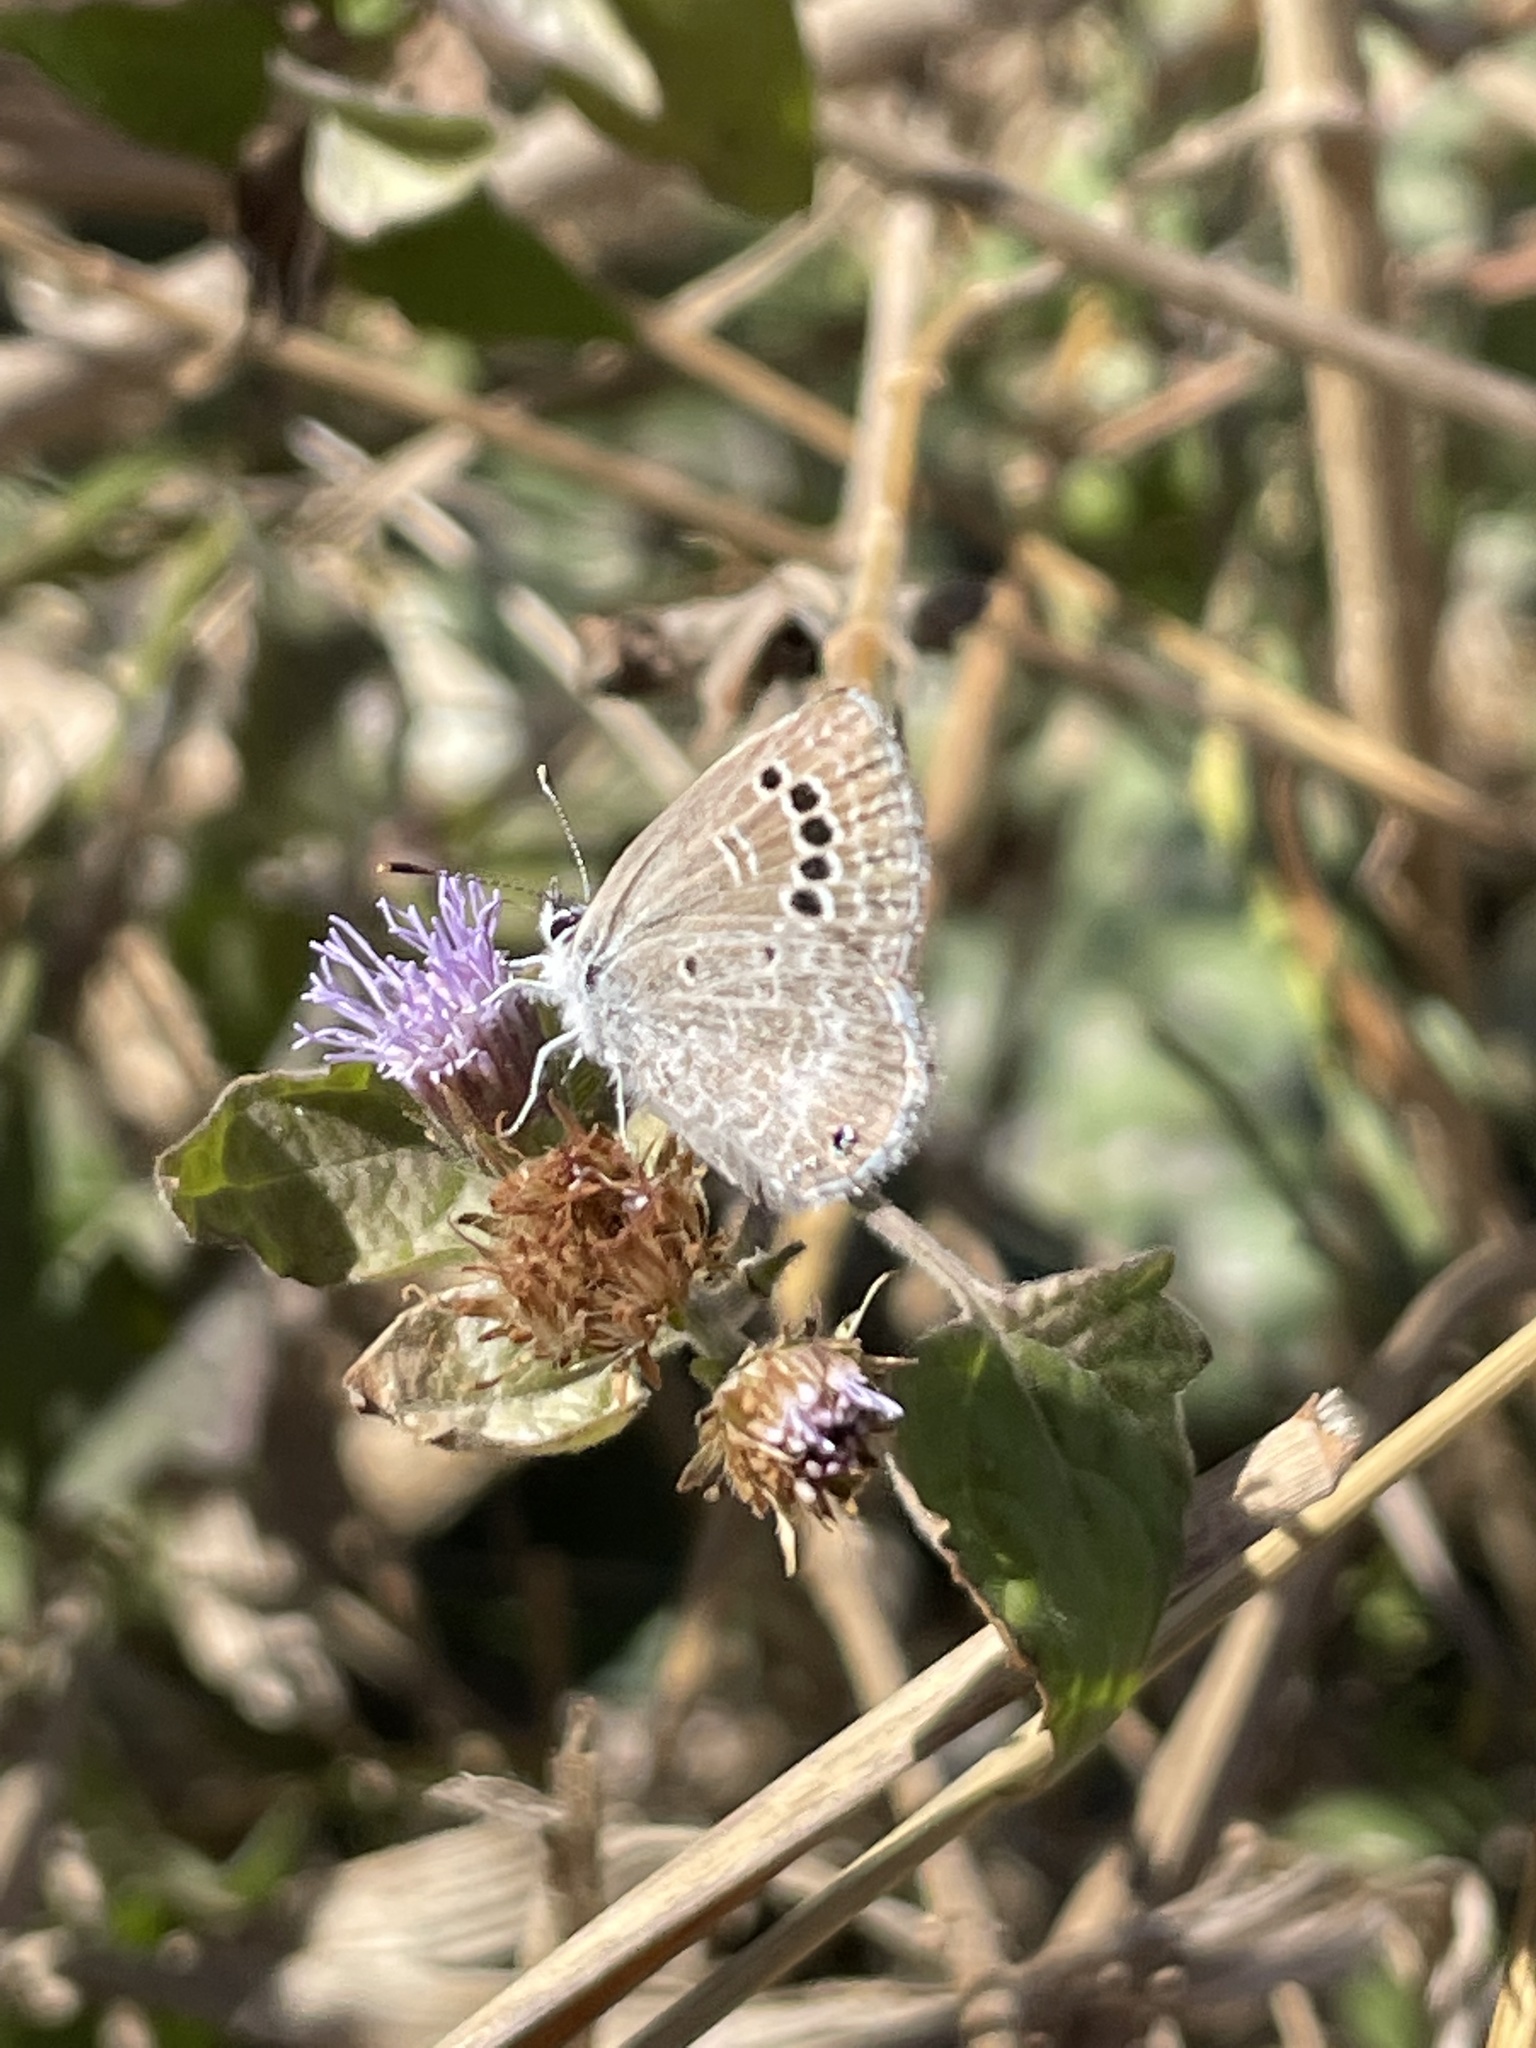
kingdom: Animalia
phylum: Arthropoda
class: Insecta
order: Lepidoptera
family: Lycaenidae
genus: Echinargus
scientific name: Echinargus isola
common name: Reakirt's blue
